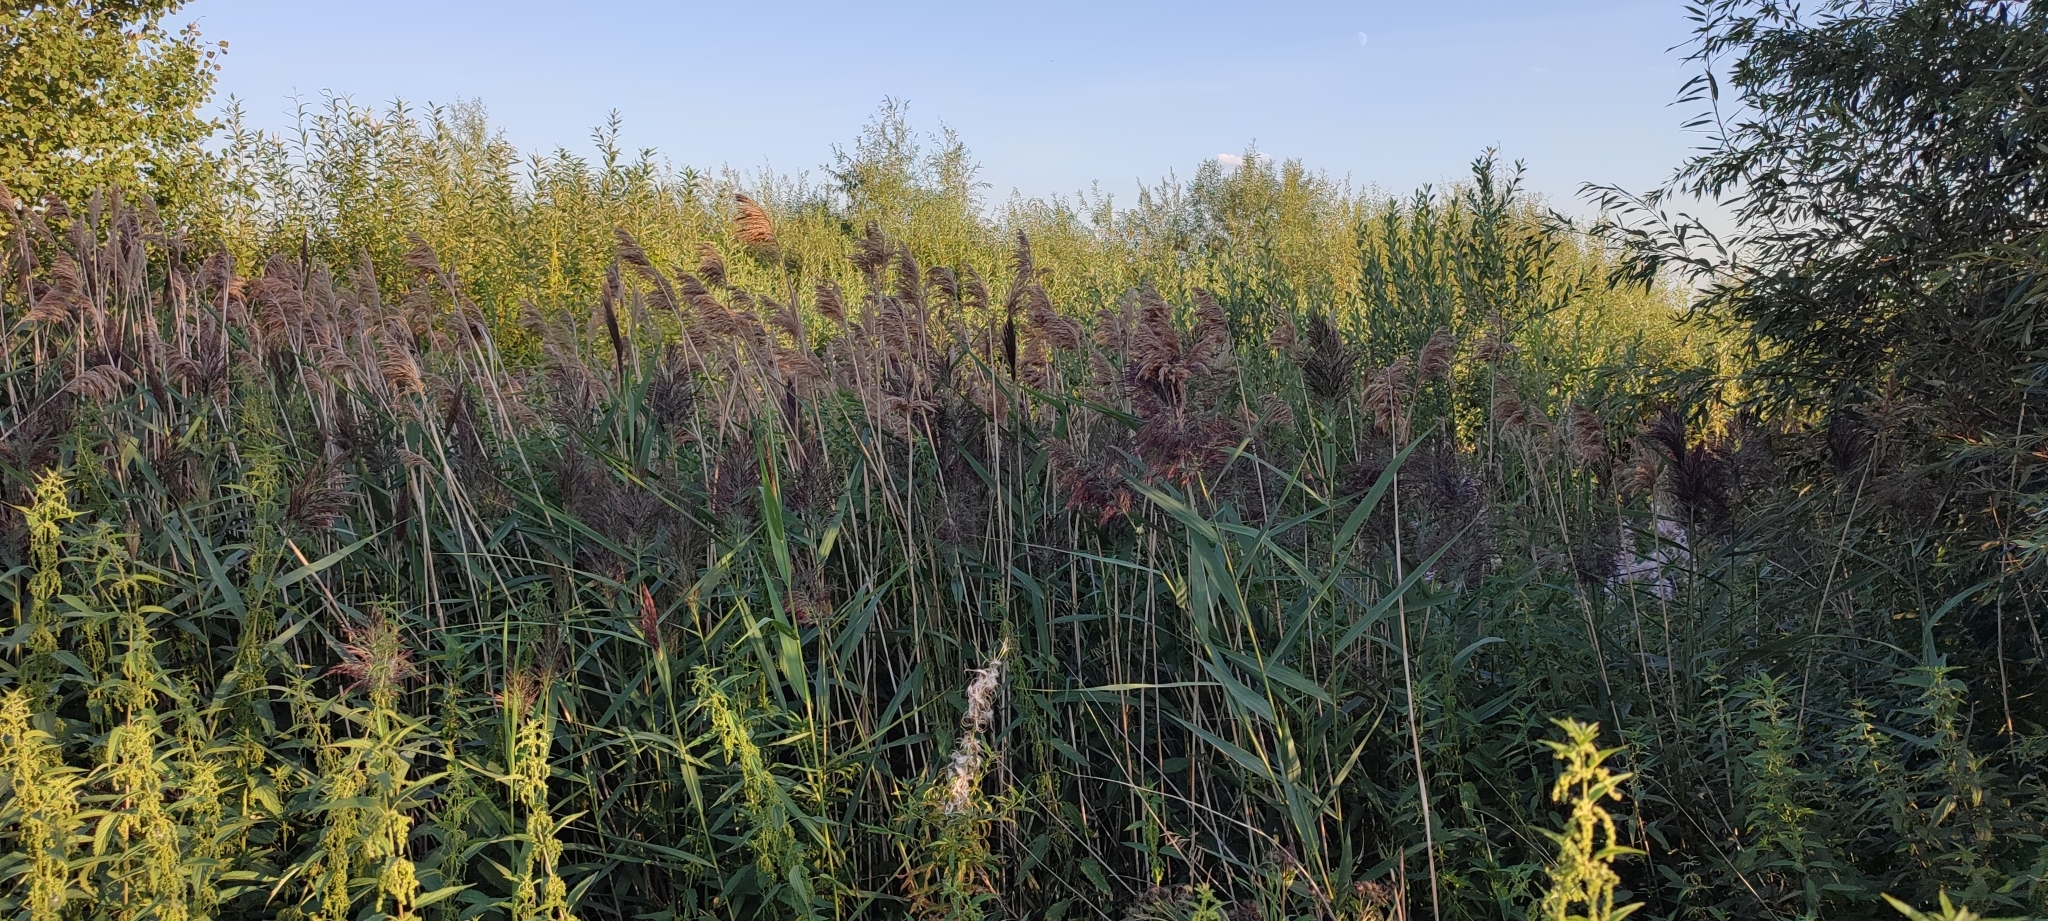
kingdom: Plantae
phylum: Tracheophyta
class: Liliopsida
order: Poales
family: Poaceae
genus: Phragmites
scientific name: Phragmites australis
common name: Common reed
